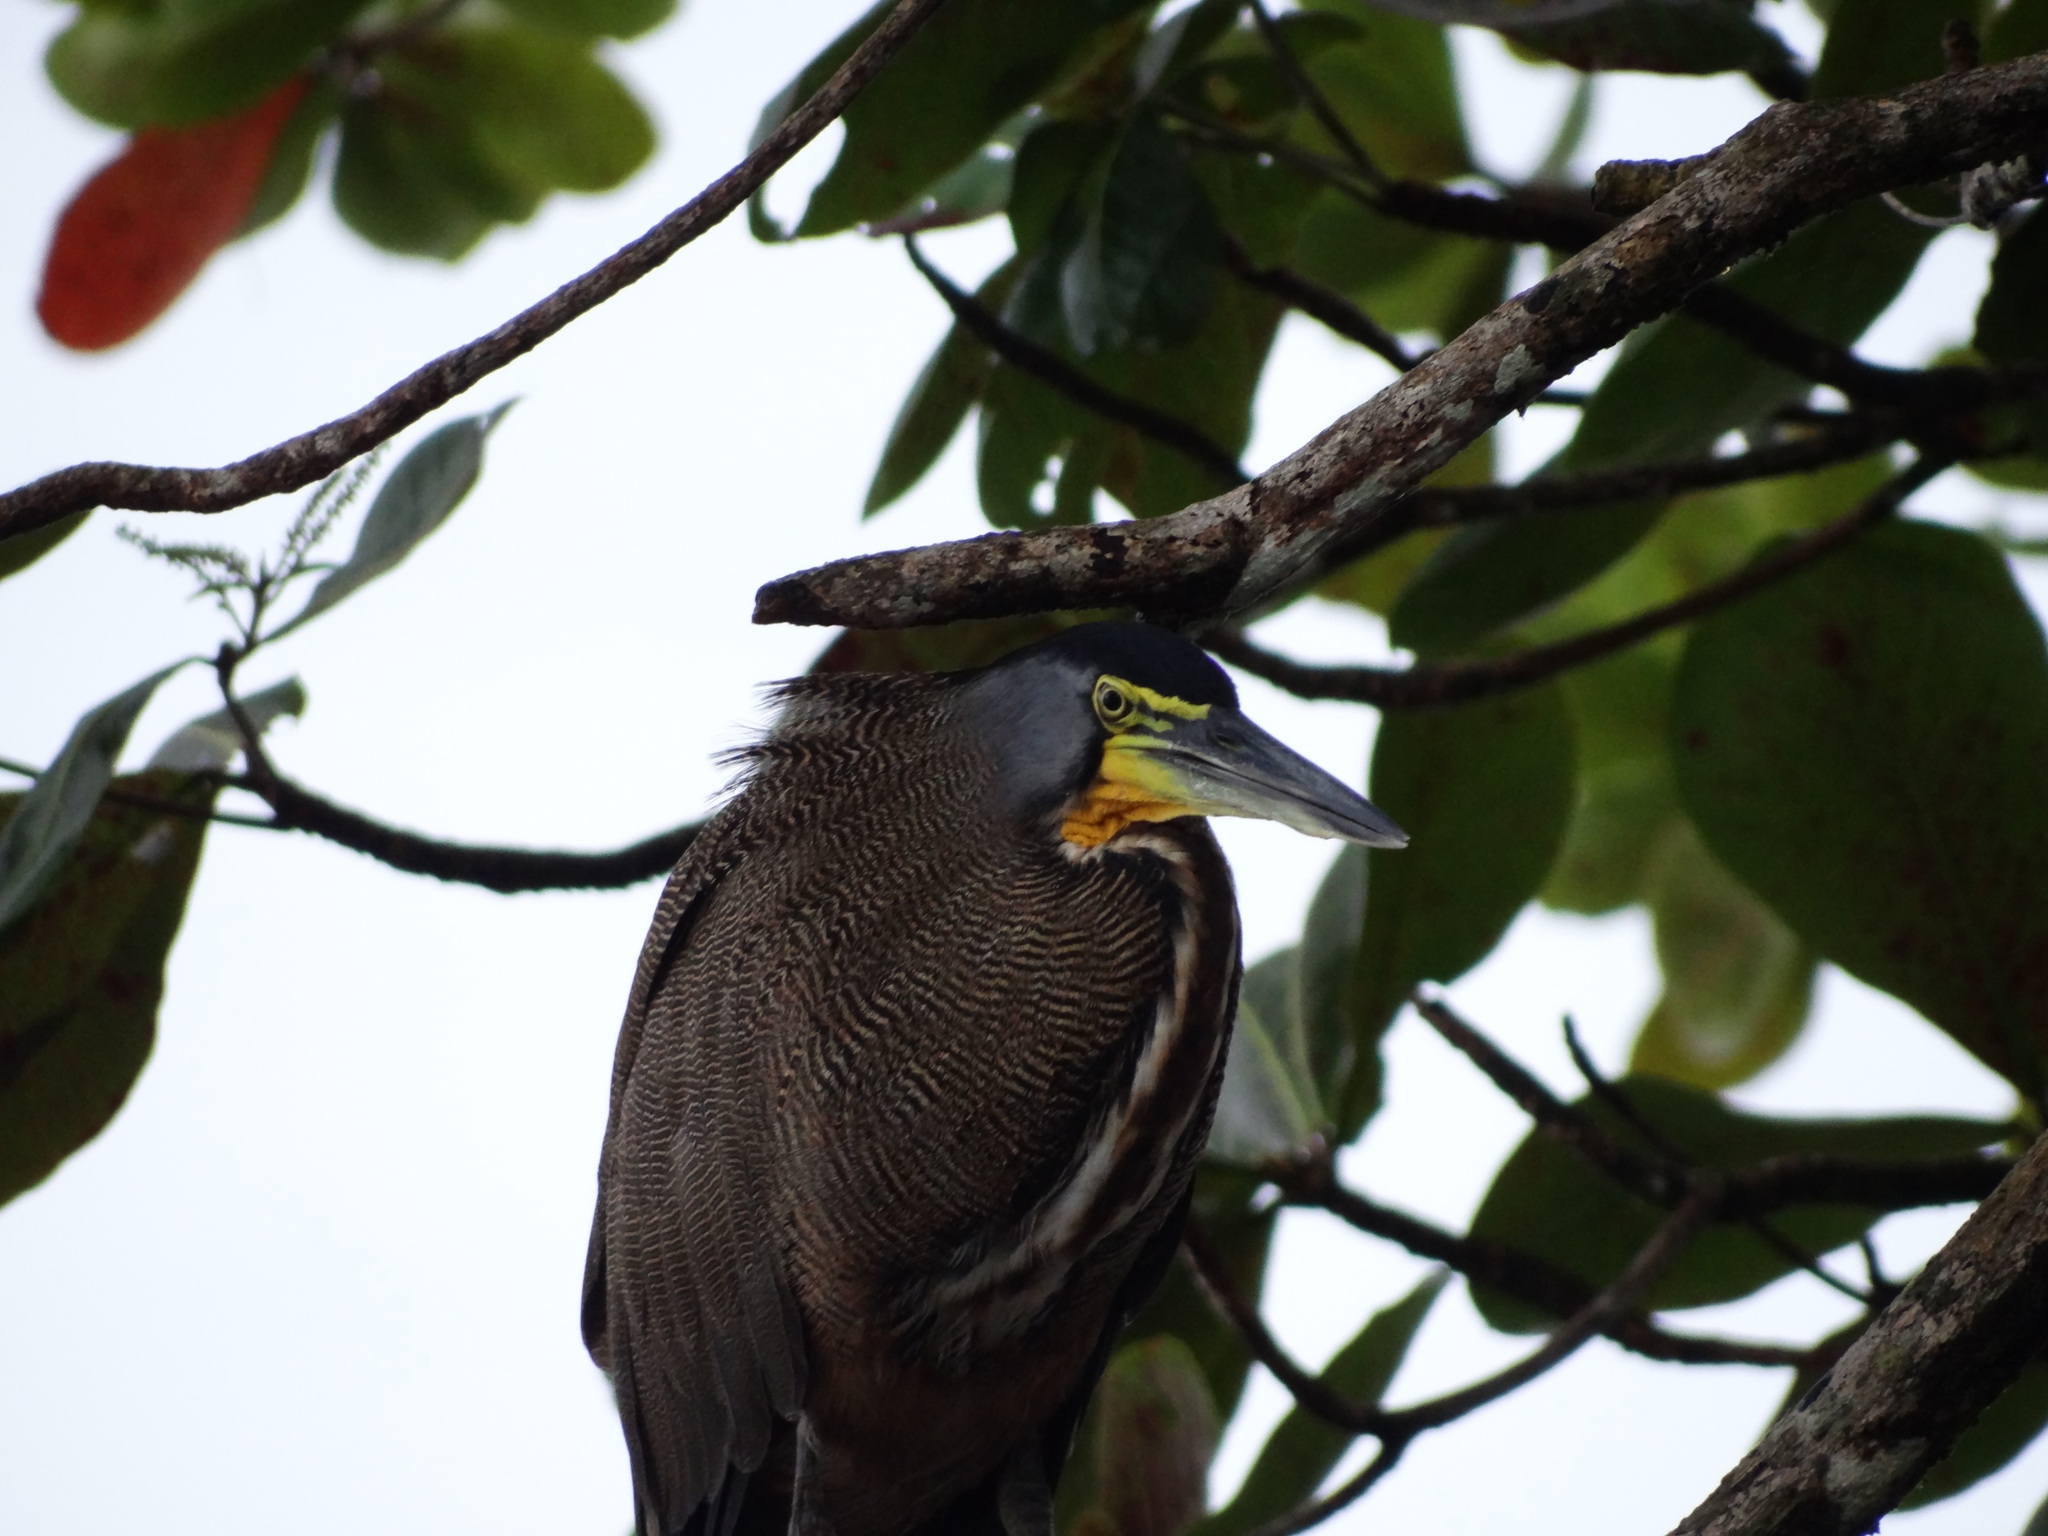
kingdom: Animalia
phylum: Chordata
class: Aves
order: Pelecaniformes
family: Ardeidae
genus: Tigrisoma
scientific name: Tigrisoma mexicanum
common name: Bare-throated tiger-heron
